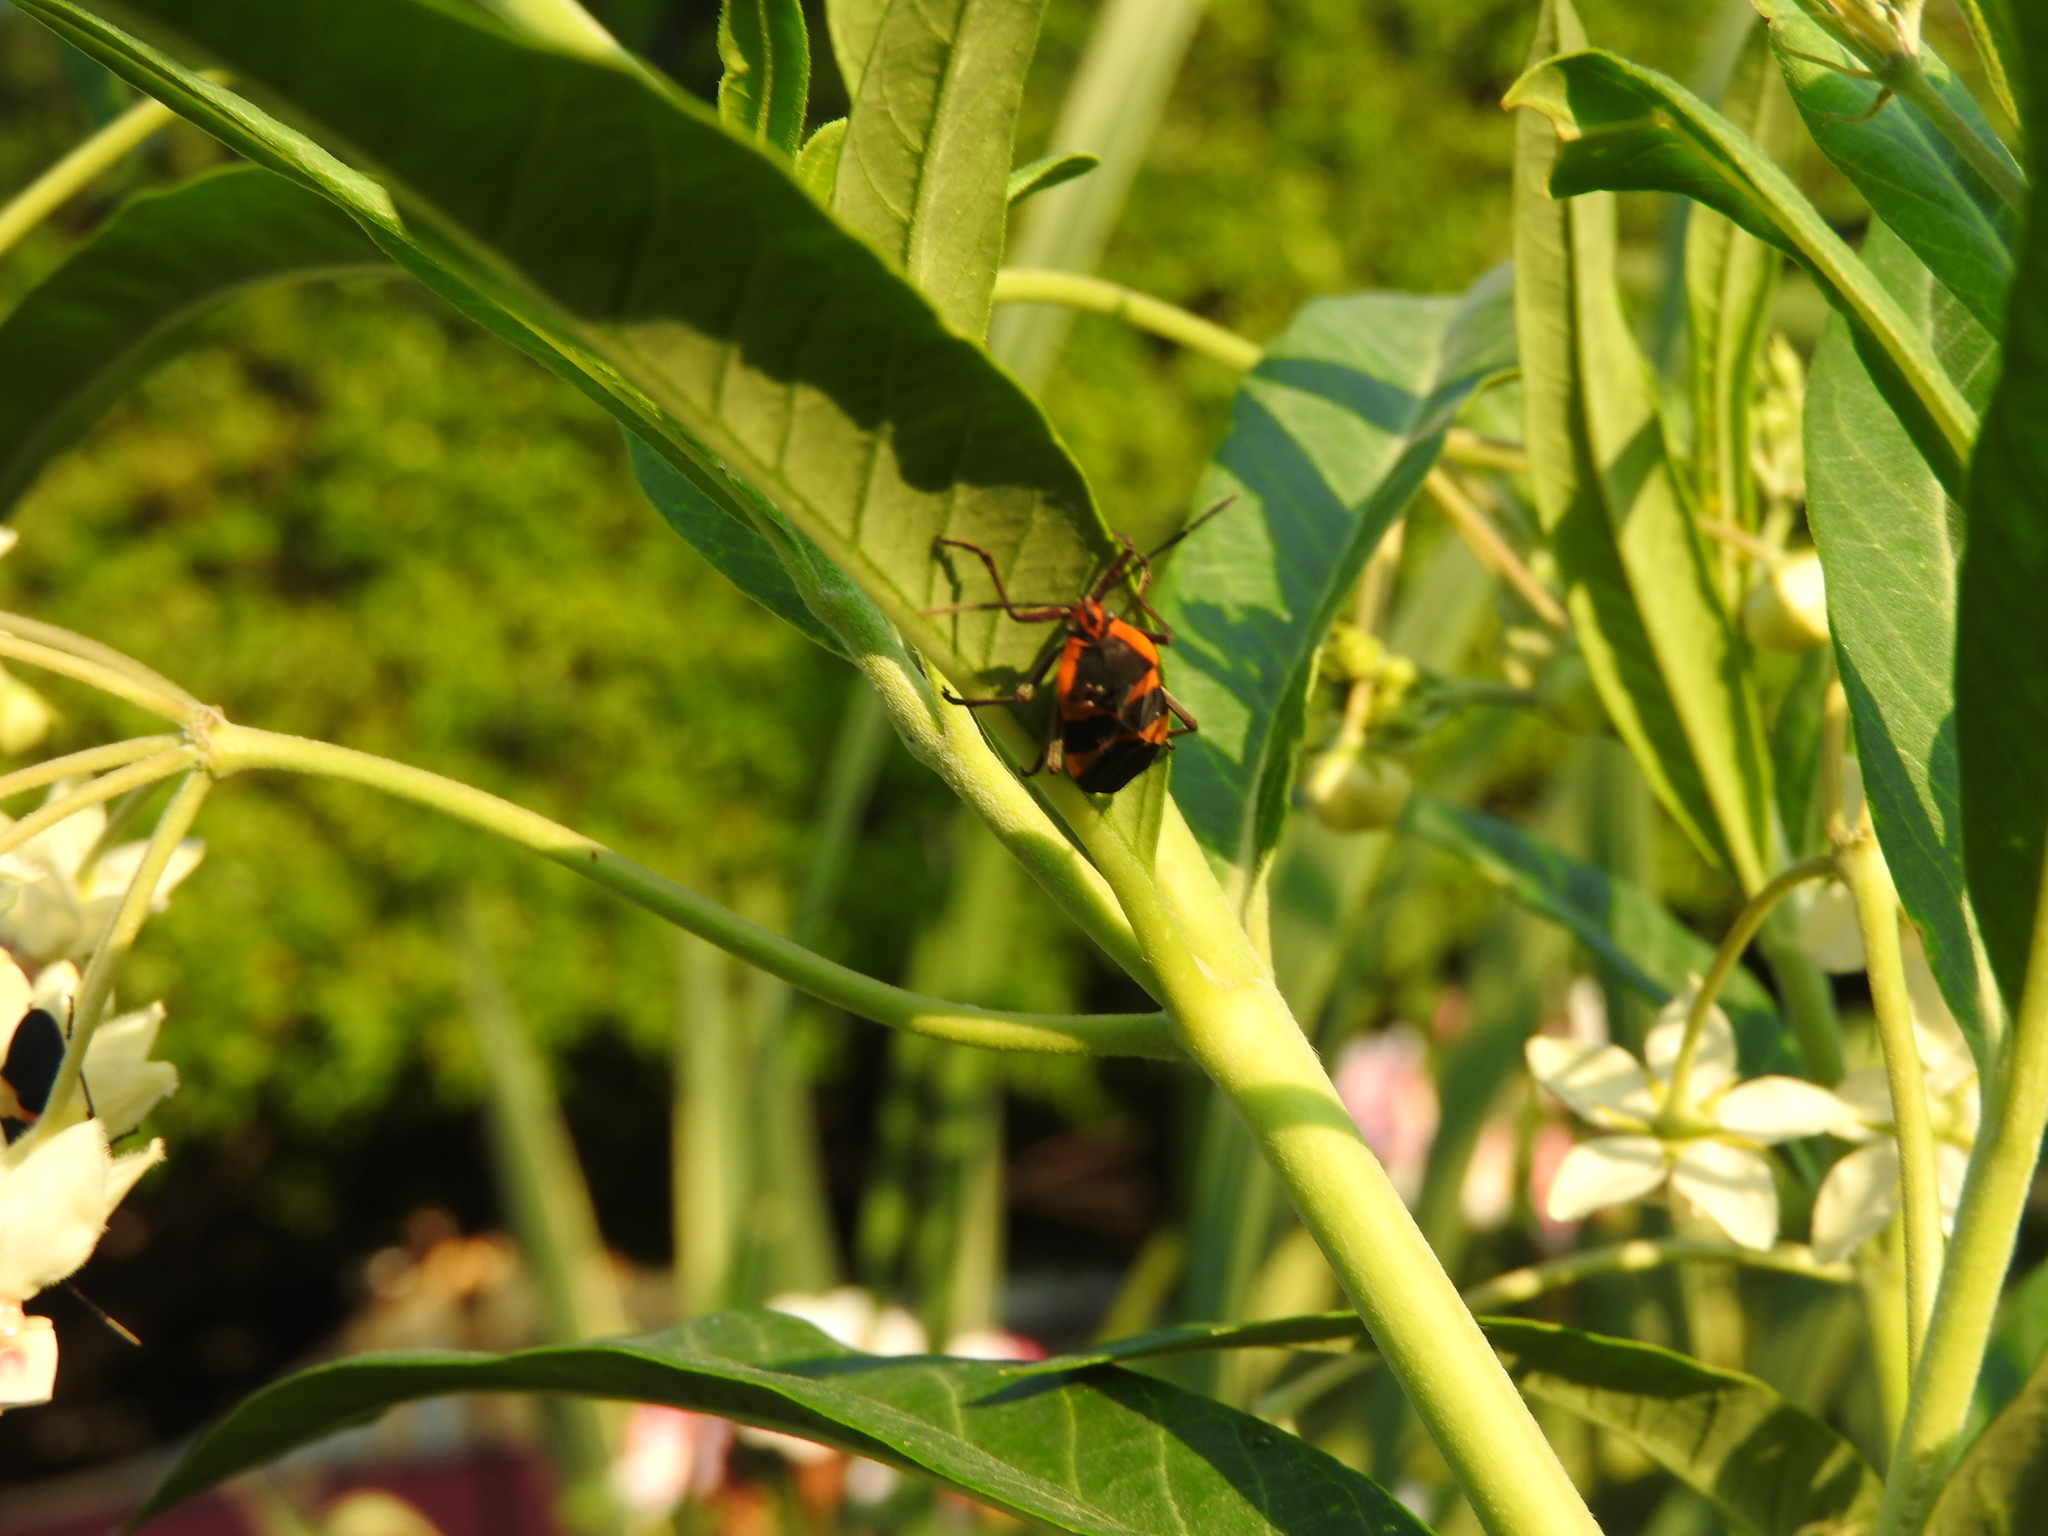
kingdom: Animalia
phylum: Arthropoda
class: Insecta
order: Hemiptera
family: Lygaeidae
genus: Oncopeltus
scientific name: Oncopeltus fasciatus
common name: Large milkweed bug
